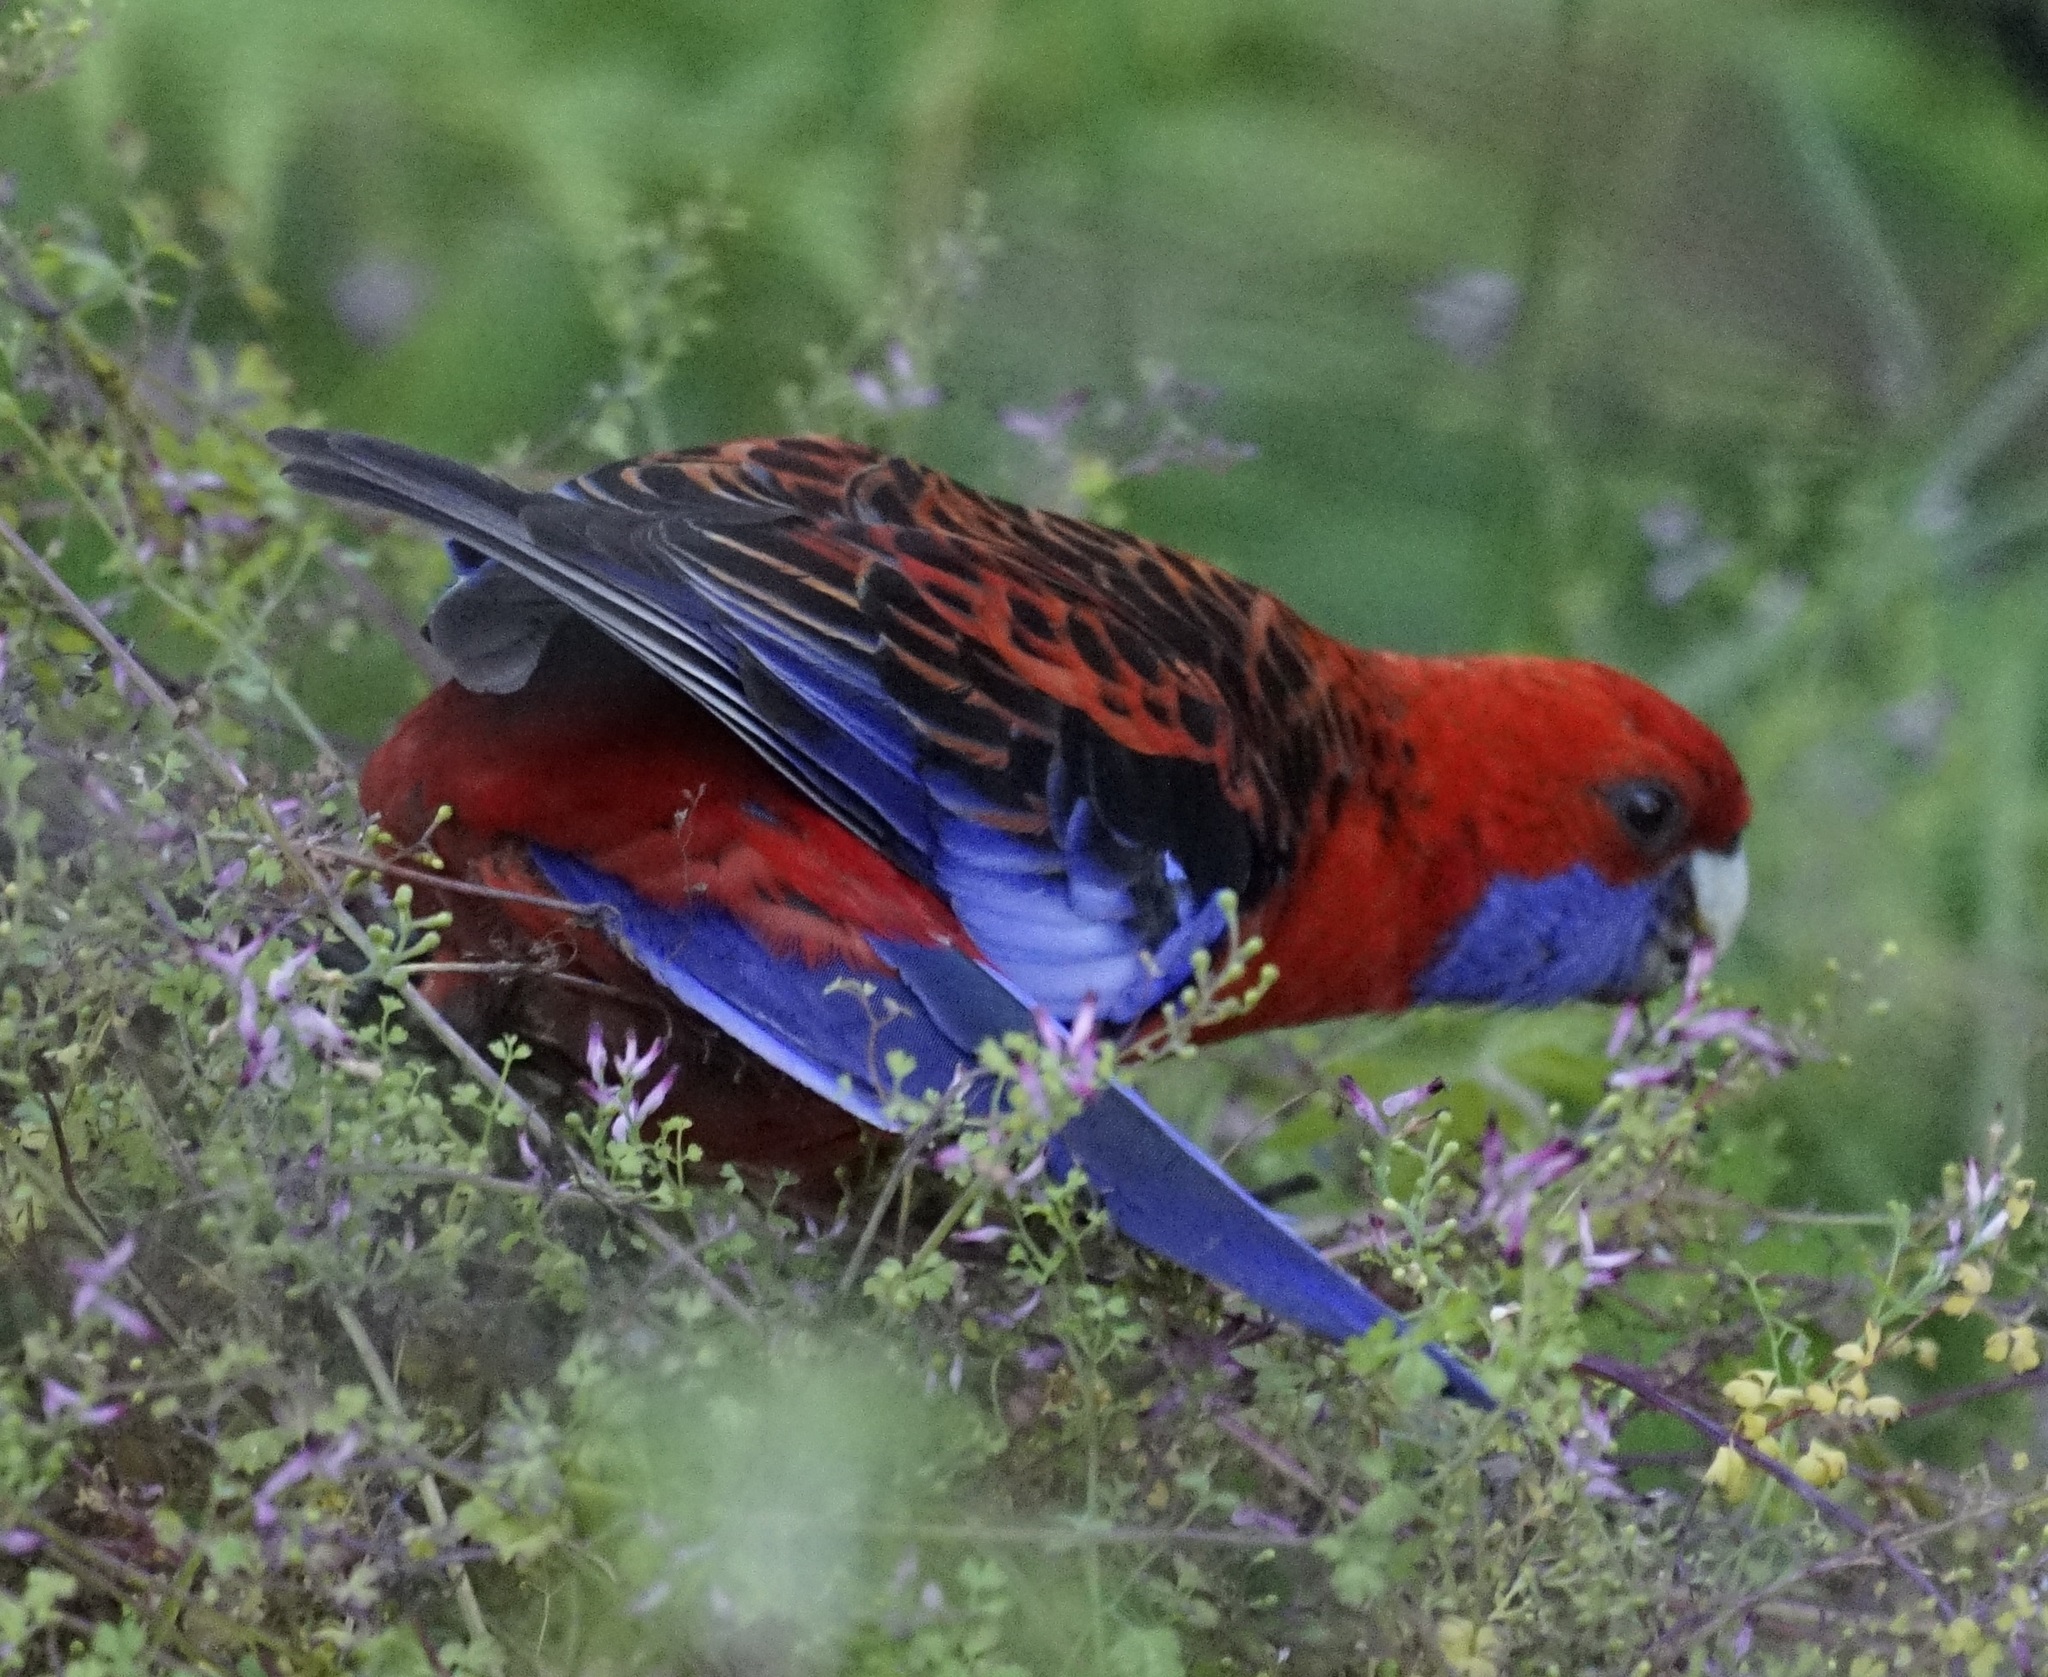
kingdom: Animalia
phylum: Chordata
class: Aves
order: Psittaciformes
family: Psittacidae
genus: Platycercus
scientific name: Platycercus elegans
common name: Crimson rosella
